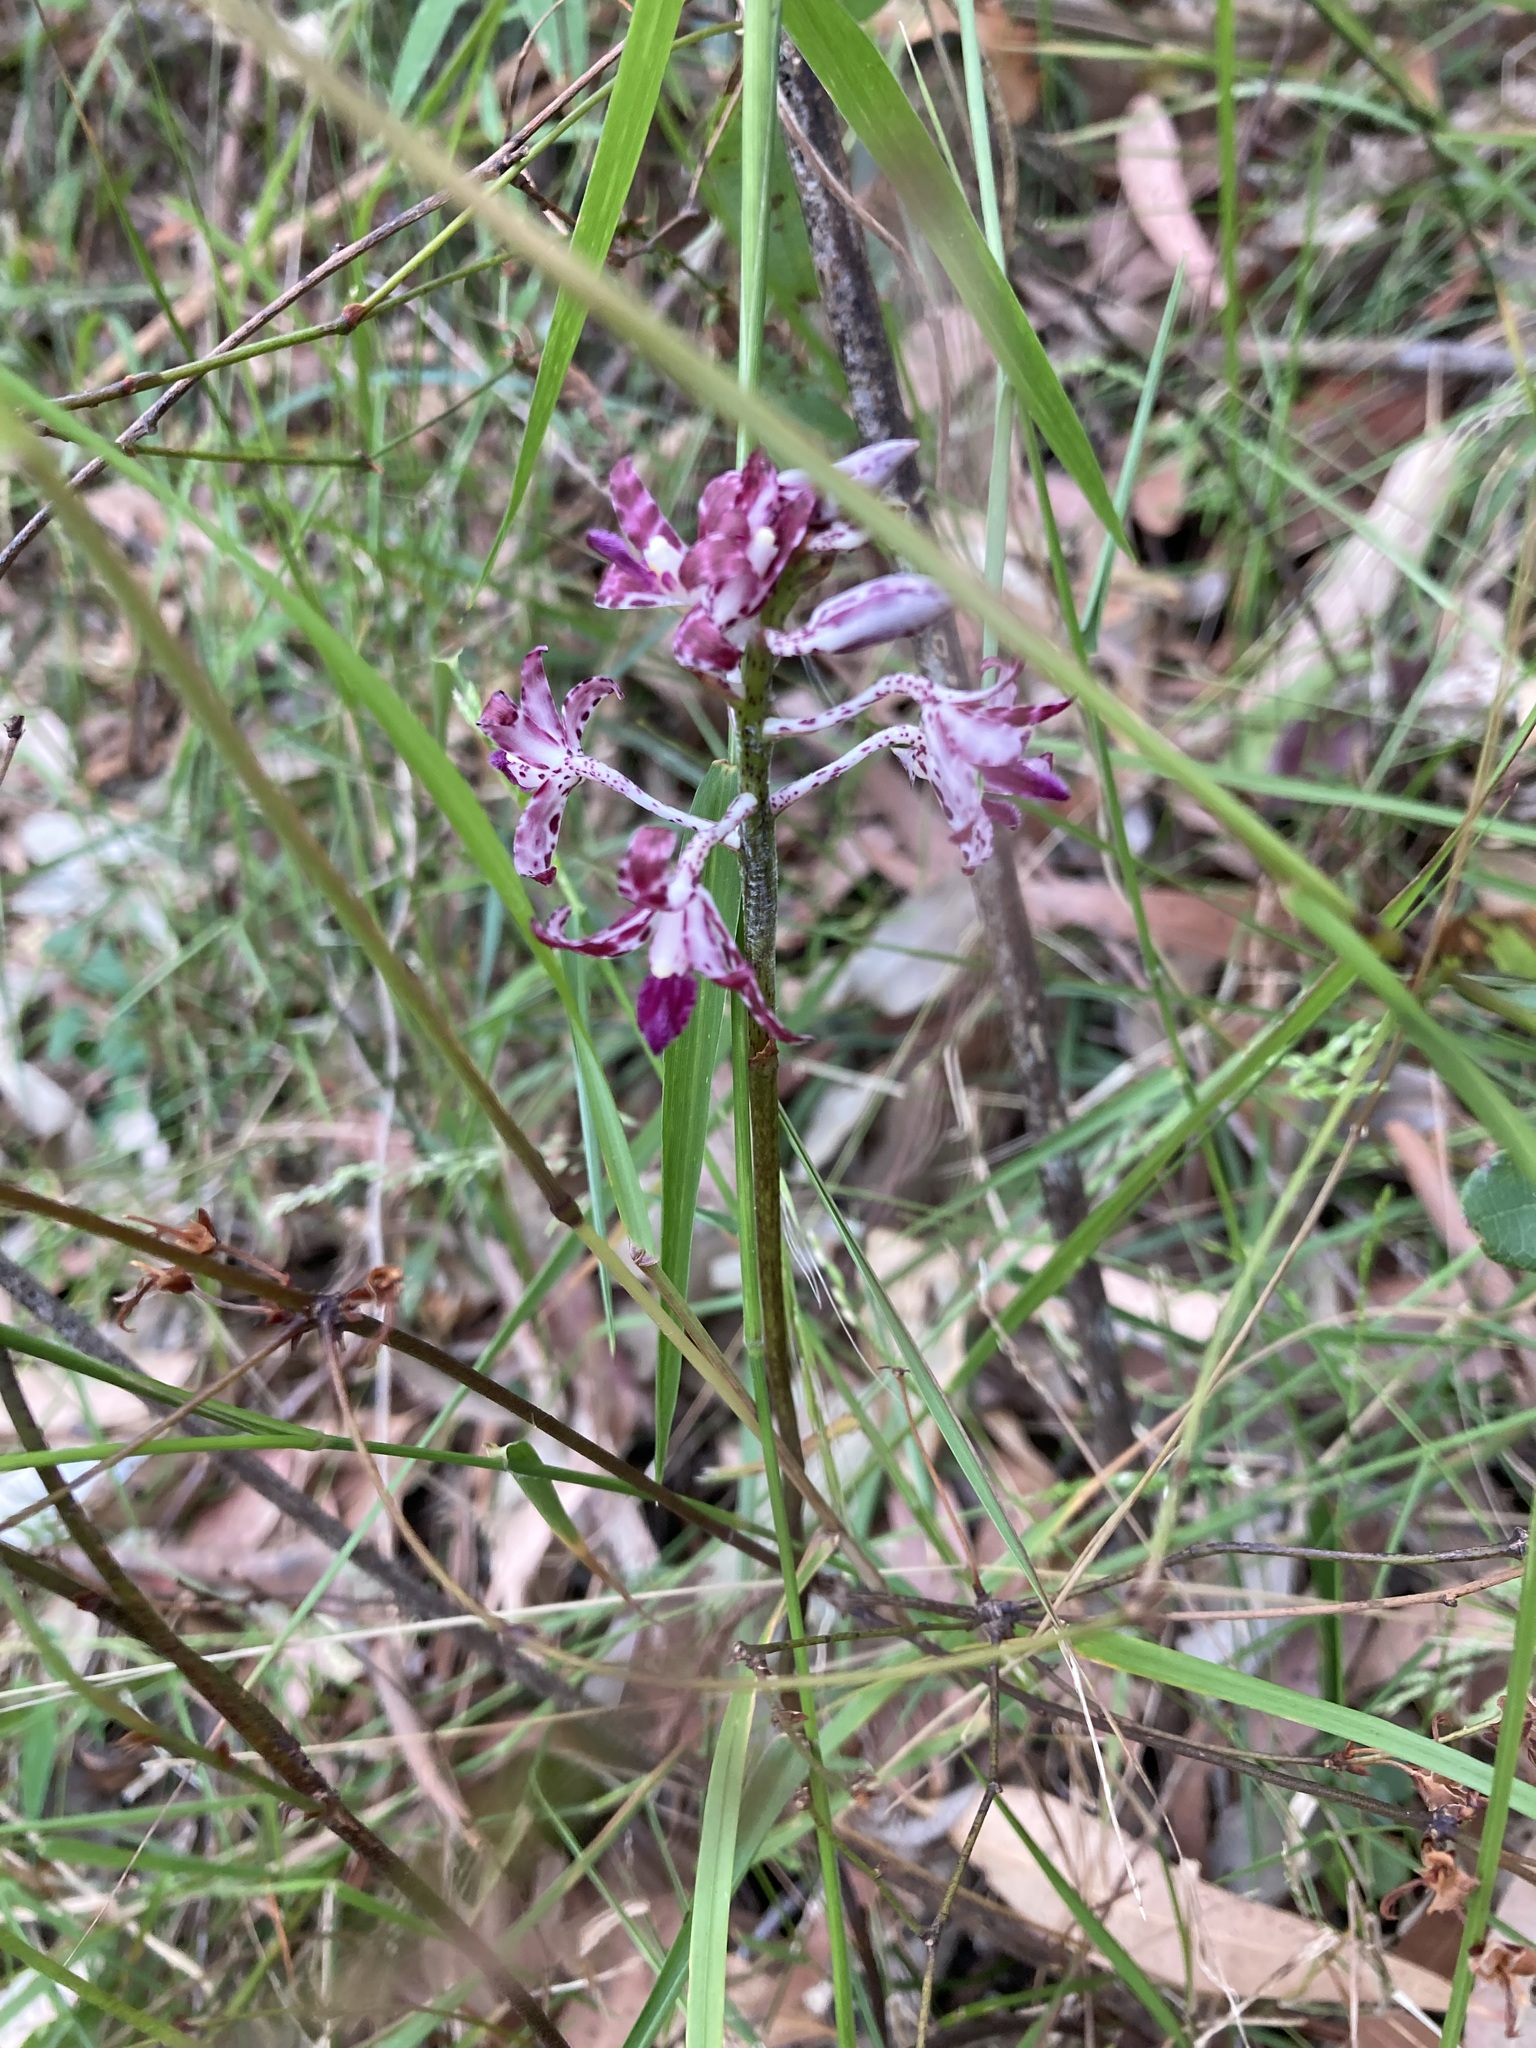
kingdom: Plantae
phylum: Tracheophyta
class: Liliopsida
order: Asparagales
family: Orchidaceae
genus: Dipodium
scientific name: Dipodium variegatum
